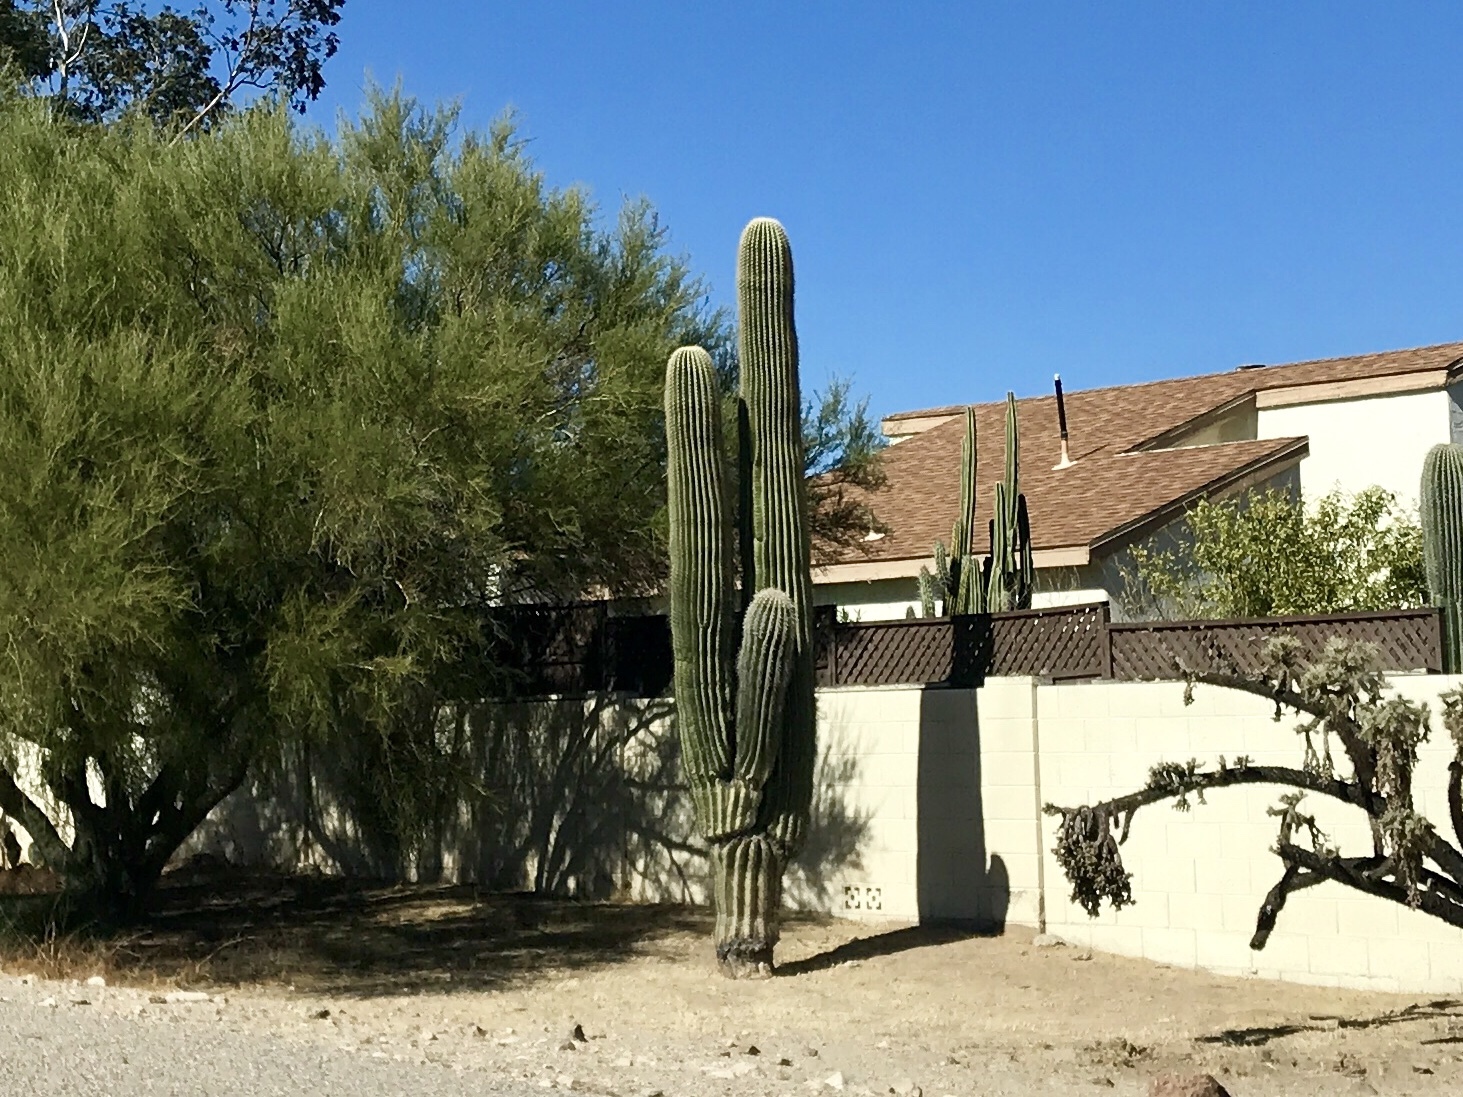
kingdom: Plantae
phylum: Tracheophyta
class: Magnoliopsida
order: Caryophyllales
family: Cactaceae
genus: Carnegiea
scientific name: Carnegiea gigantea
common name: Saguaro
